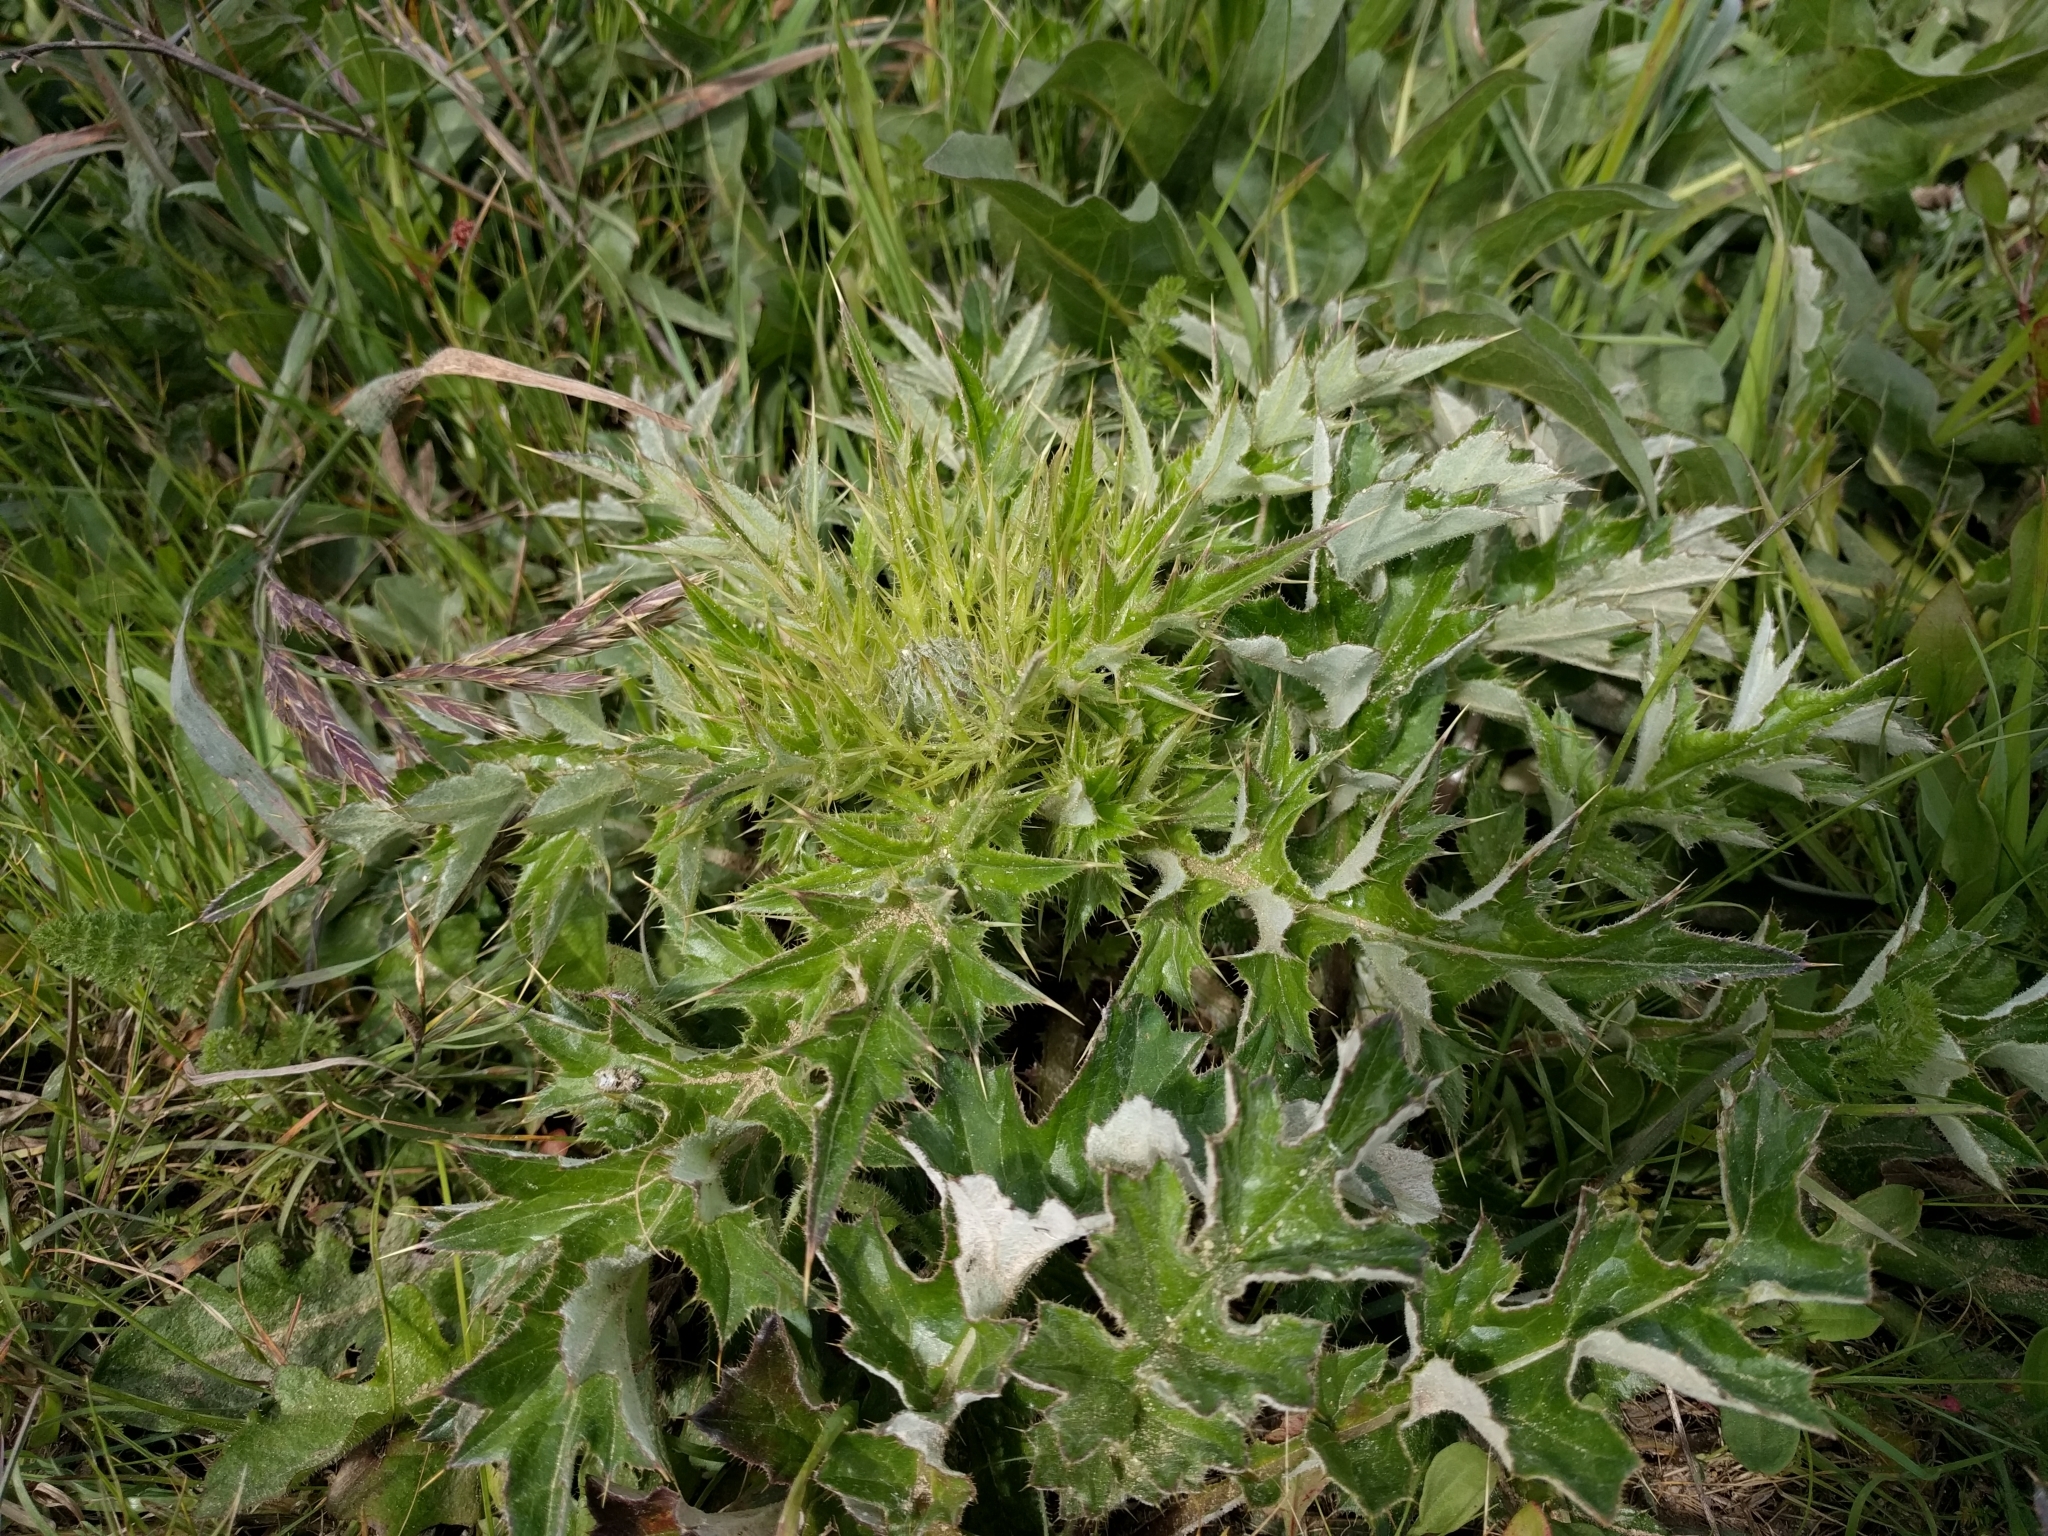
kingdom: Plantae
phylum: Tracheophyta
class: Magnoliopsida
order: Asterales
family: Asteraceae
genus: Cirsium
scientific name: Cirsium quercetorum
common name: Alameda county thistle
